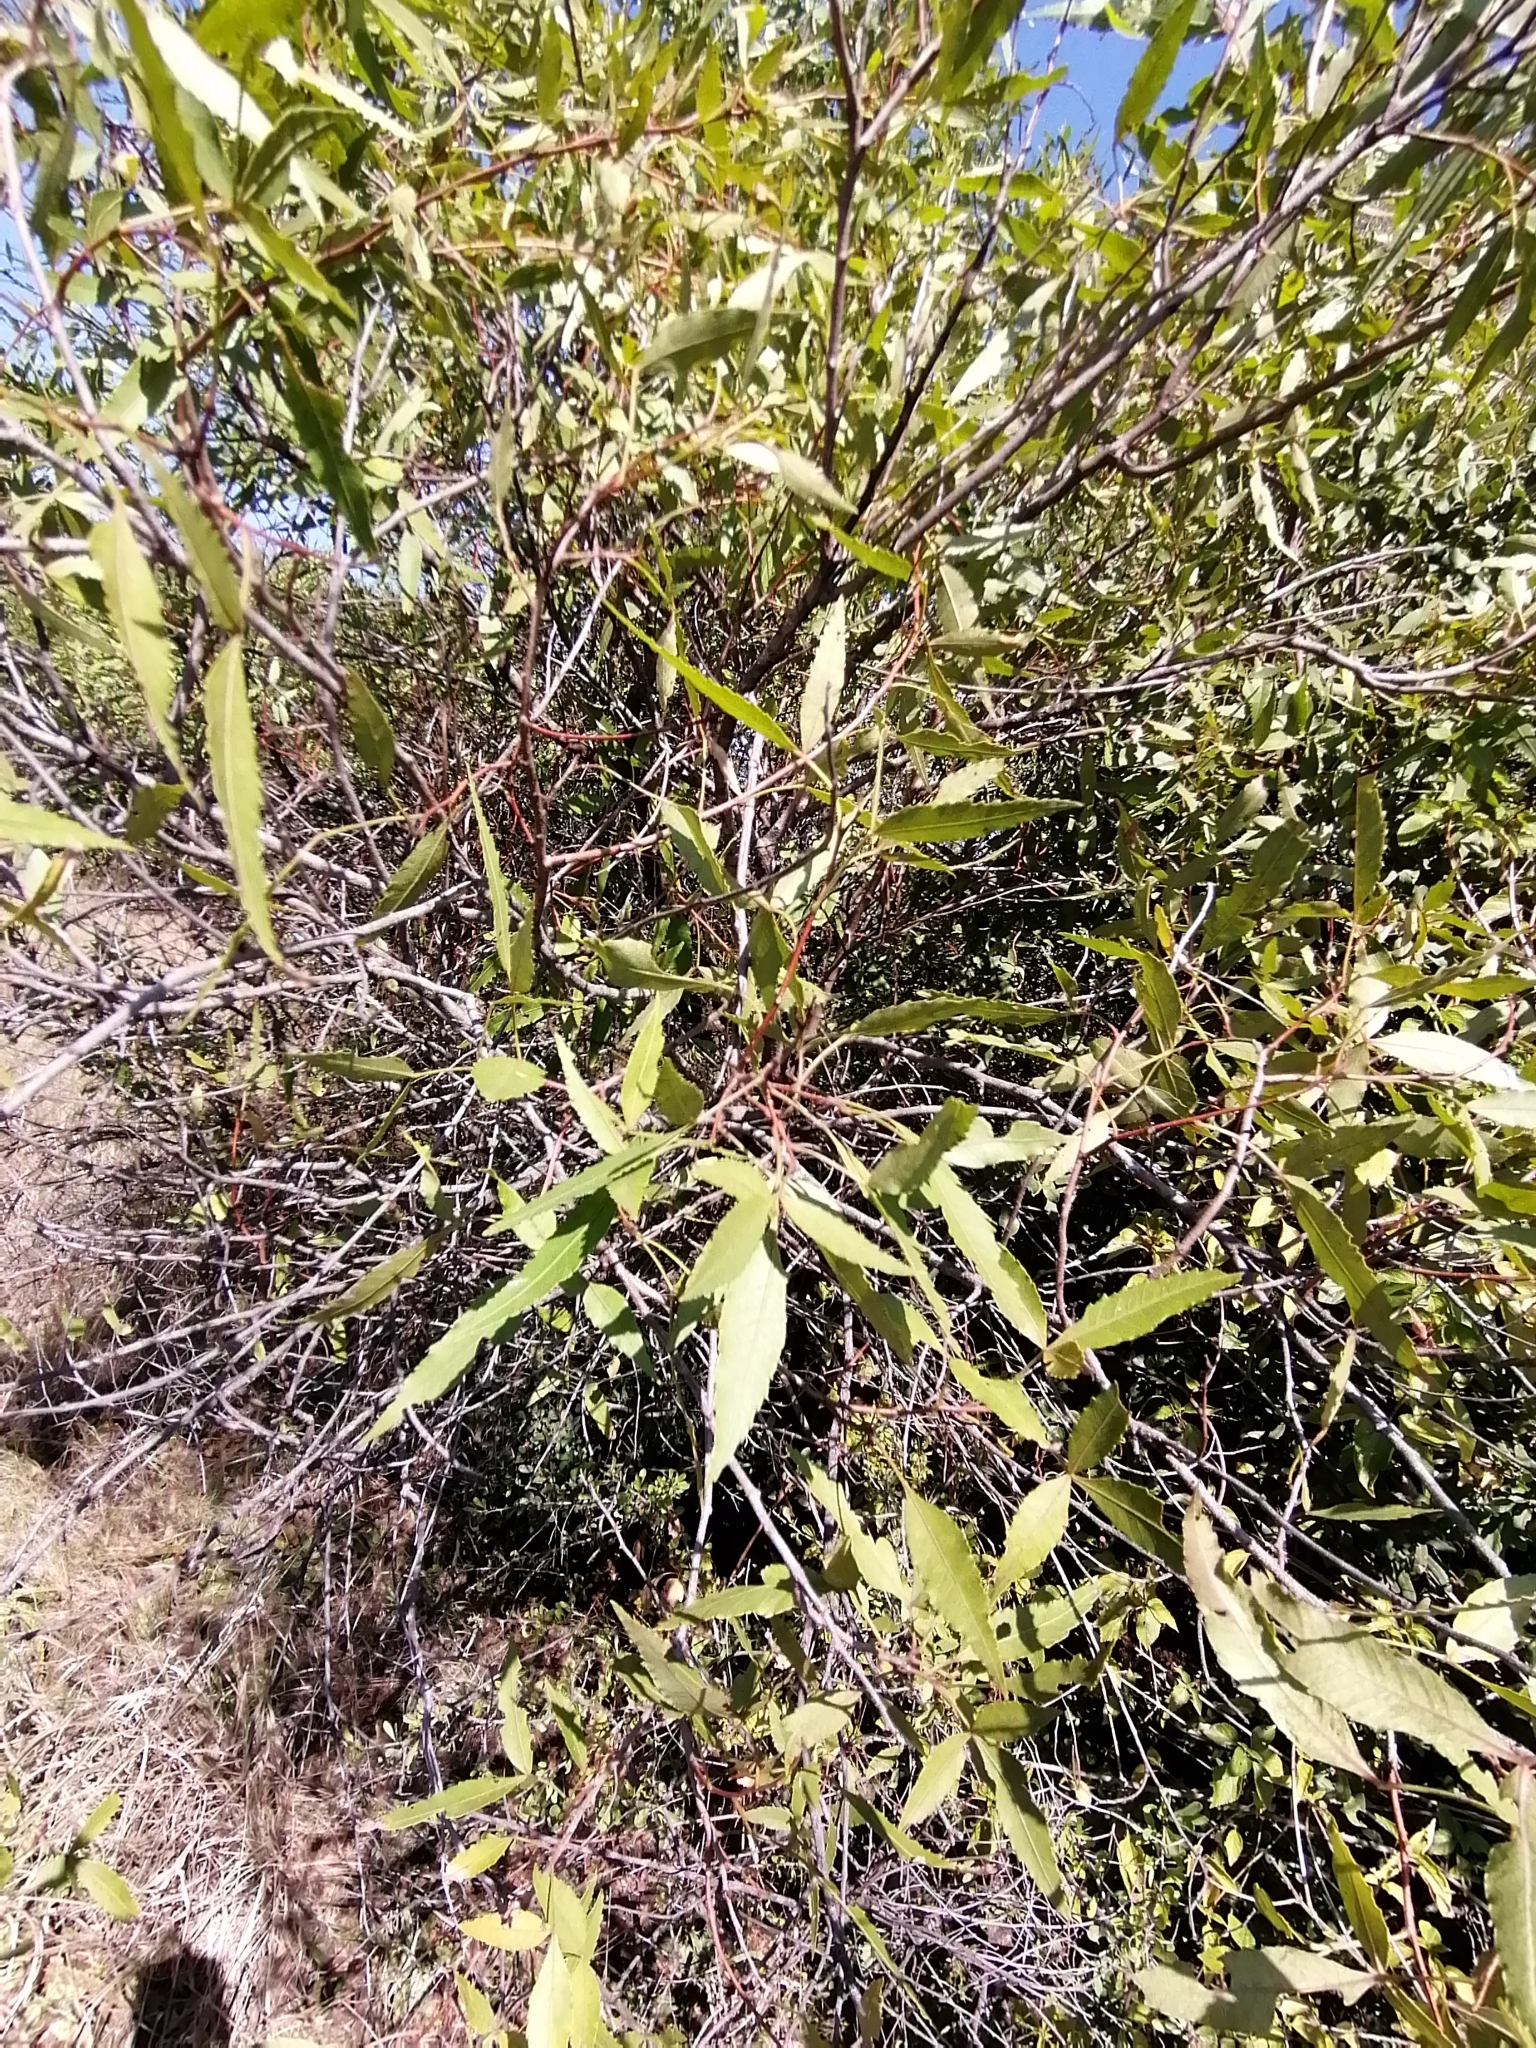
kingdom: Plantae
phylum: Tracheophyta
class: Magnoliopsida
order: Sapindales
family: Anacardiaceae
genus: Searsia
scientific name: Searsia leptodictya
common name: Mountain karee
